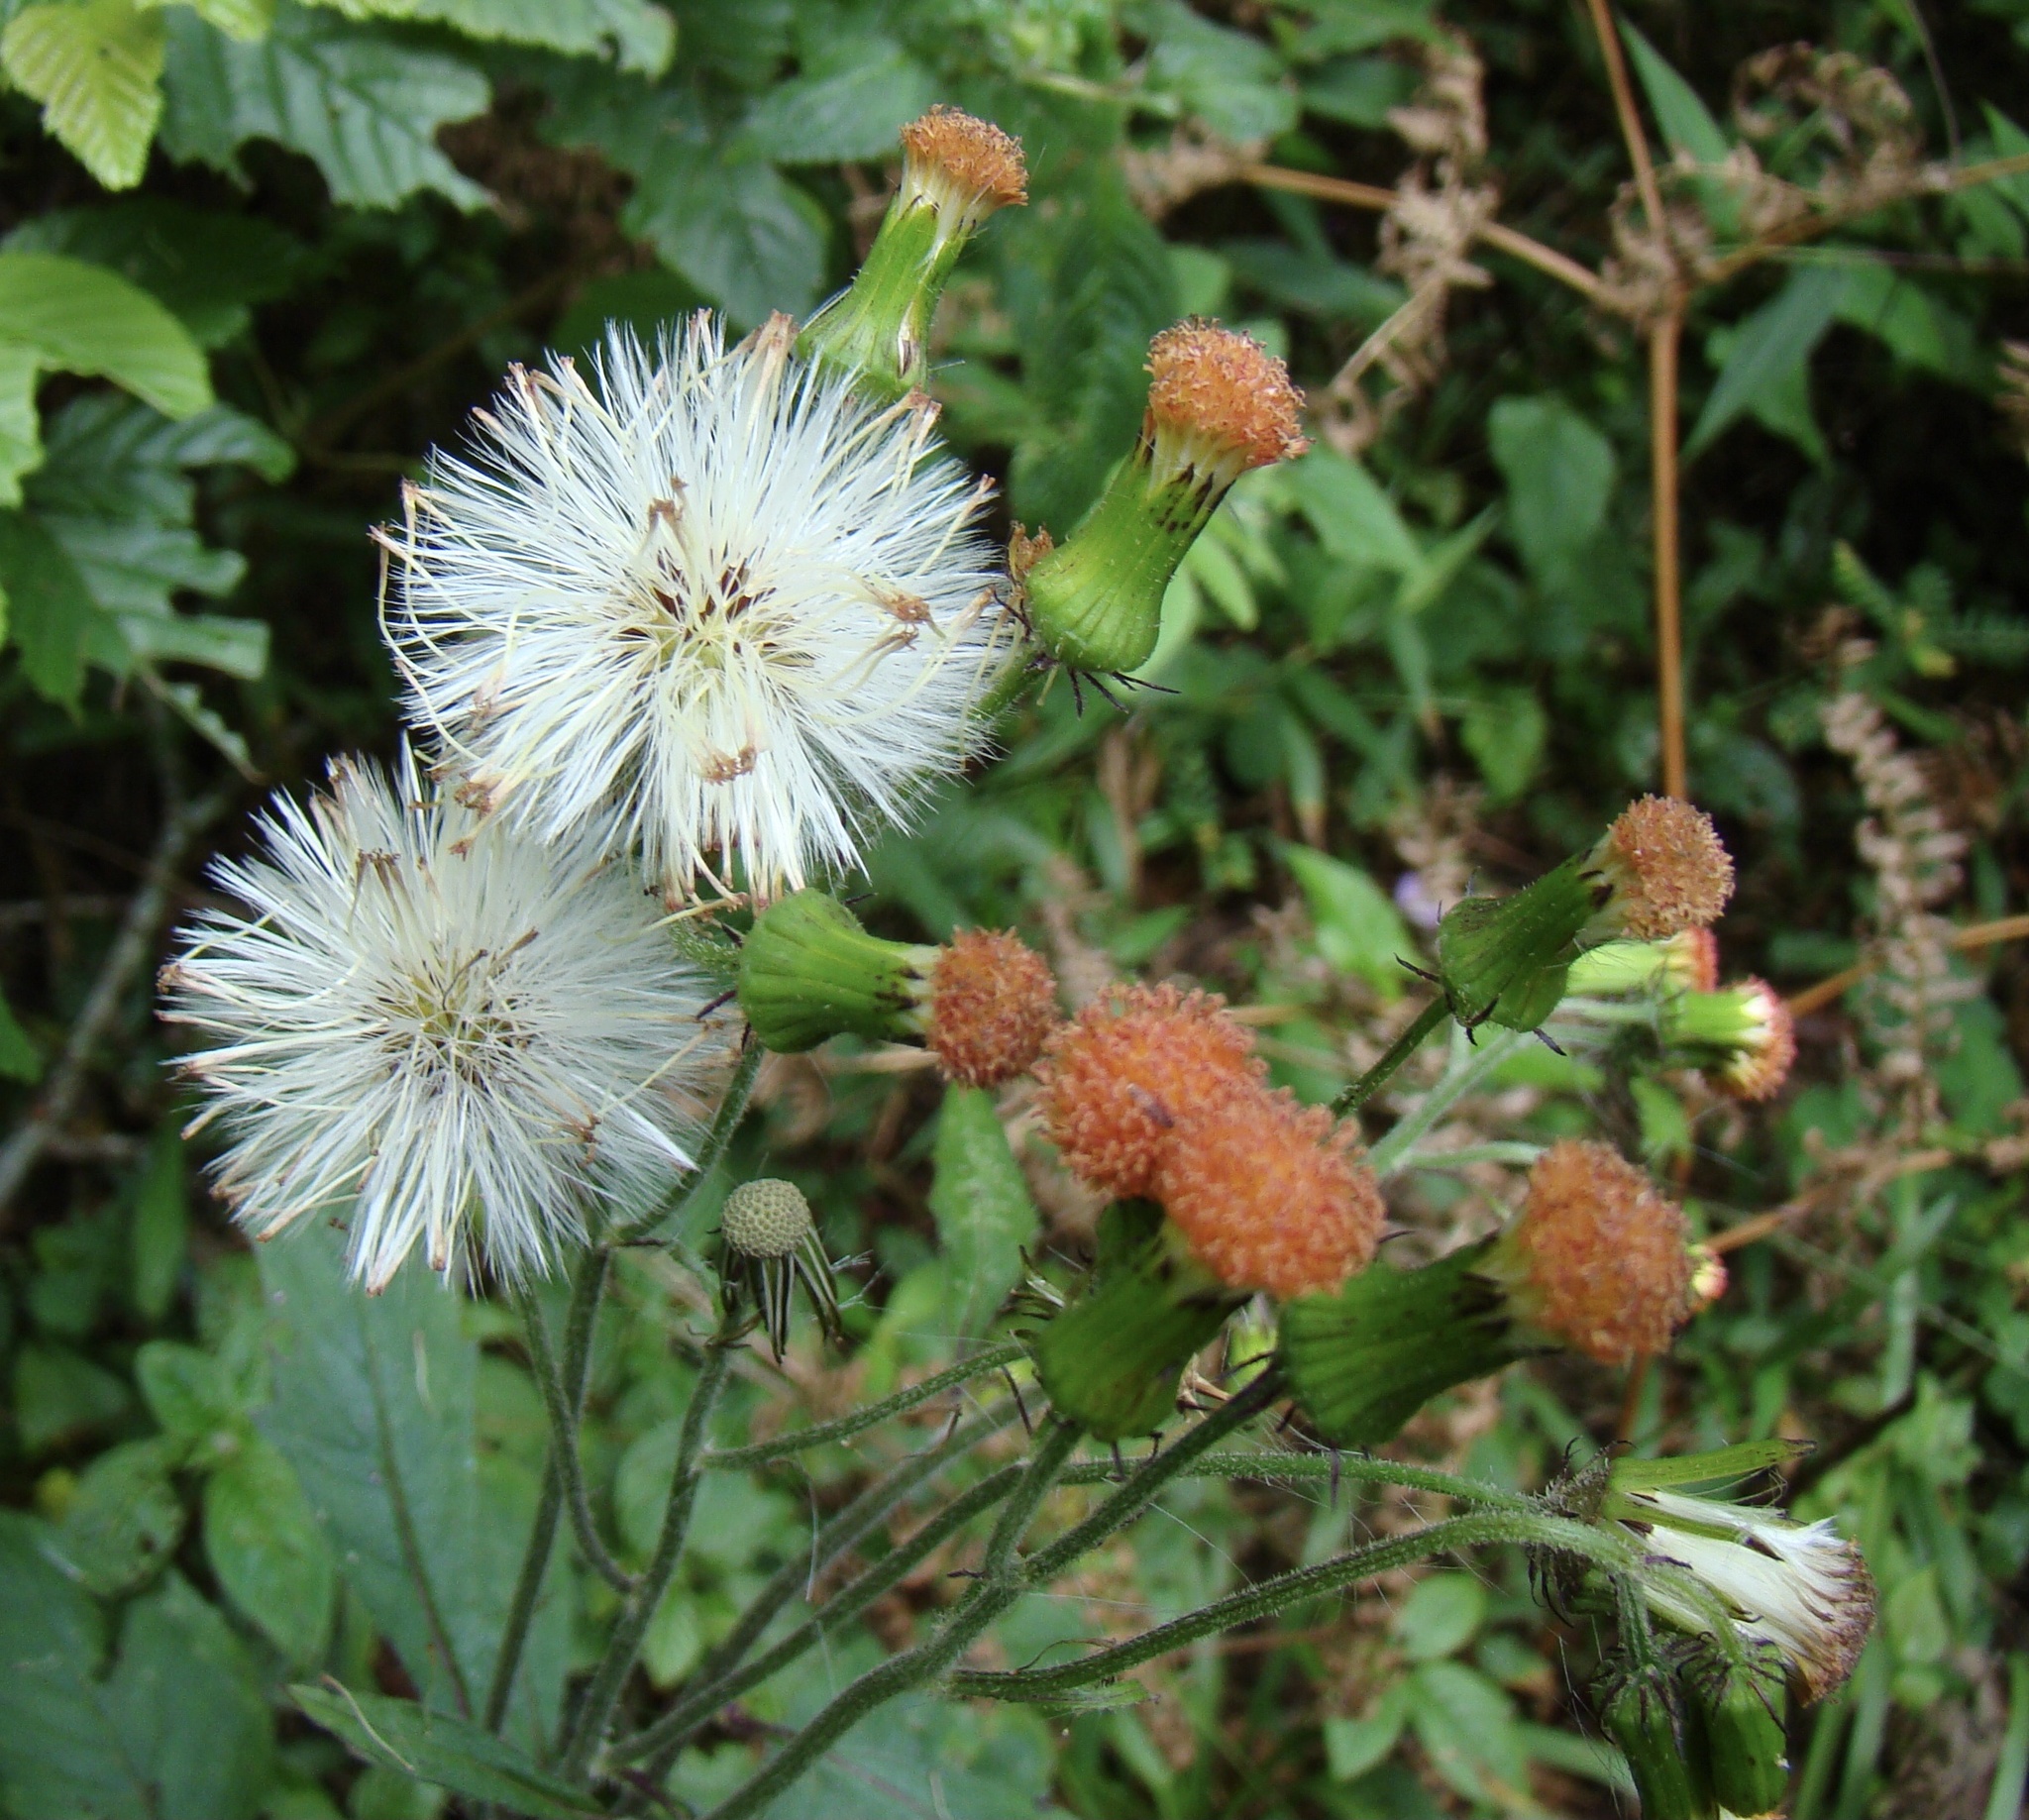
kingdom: Plantae
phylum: Tracheophyta
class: Magnoliopsida
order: Asterales
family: Asteraceae
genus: Crassocephalum
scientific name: Crassocephalum crepidioides
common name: Redflower ragleaf
